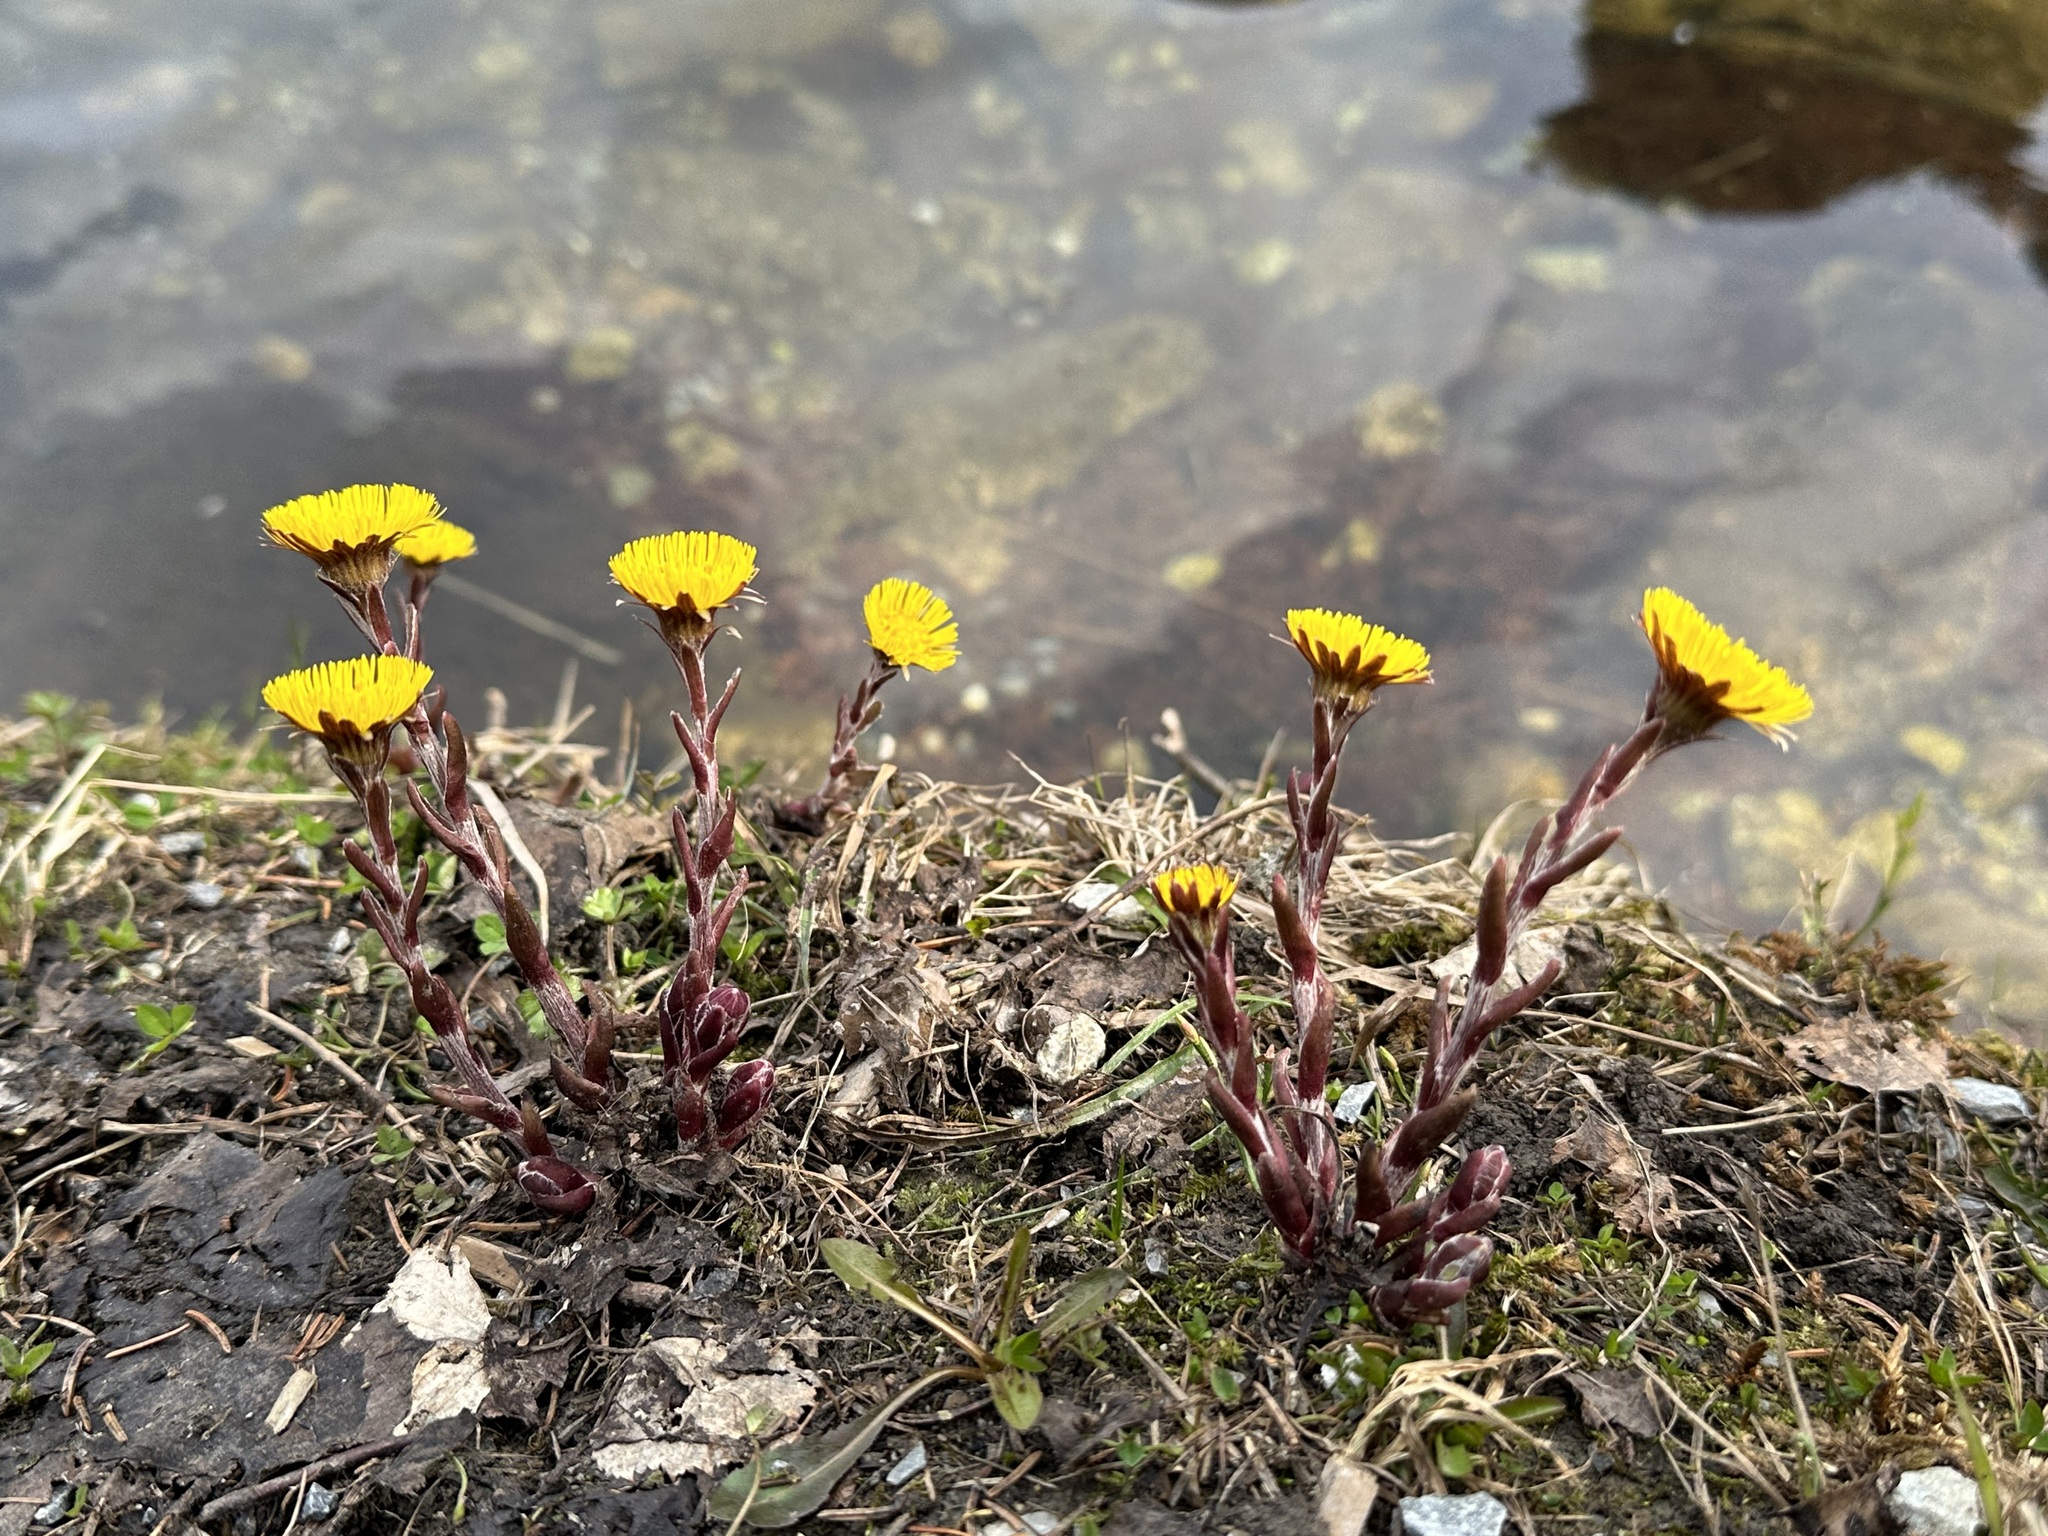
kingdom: Plantae
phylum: Tracheophyta
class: Magnoliopsida
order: Asterales
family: Asteraceae
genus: Tussilago
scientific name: Tussilago farfara
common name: Coltsfoot
